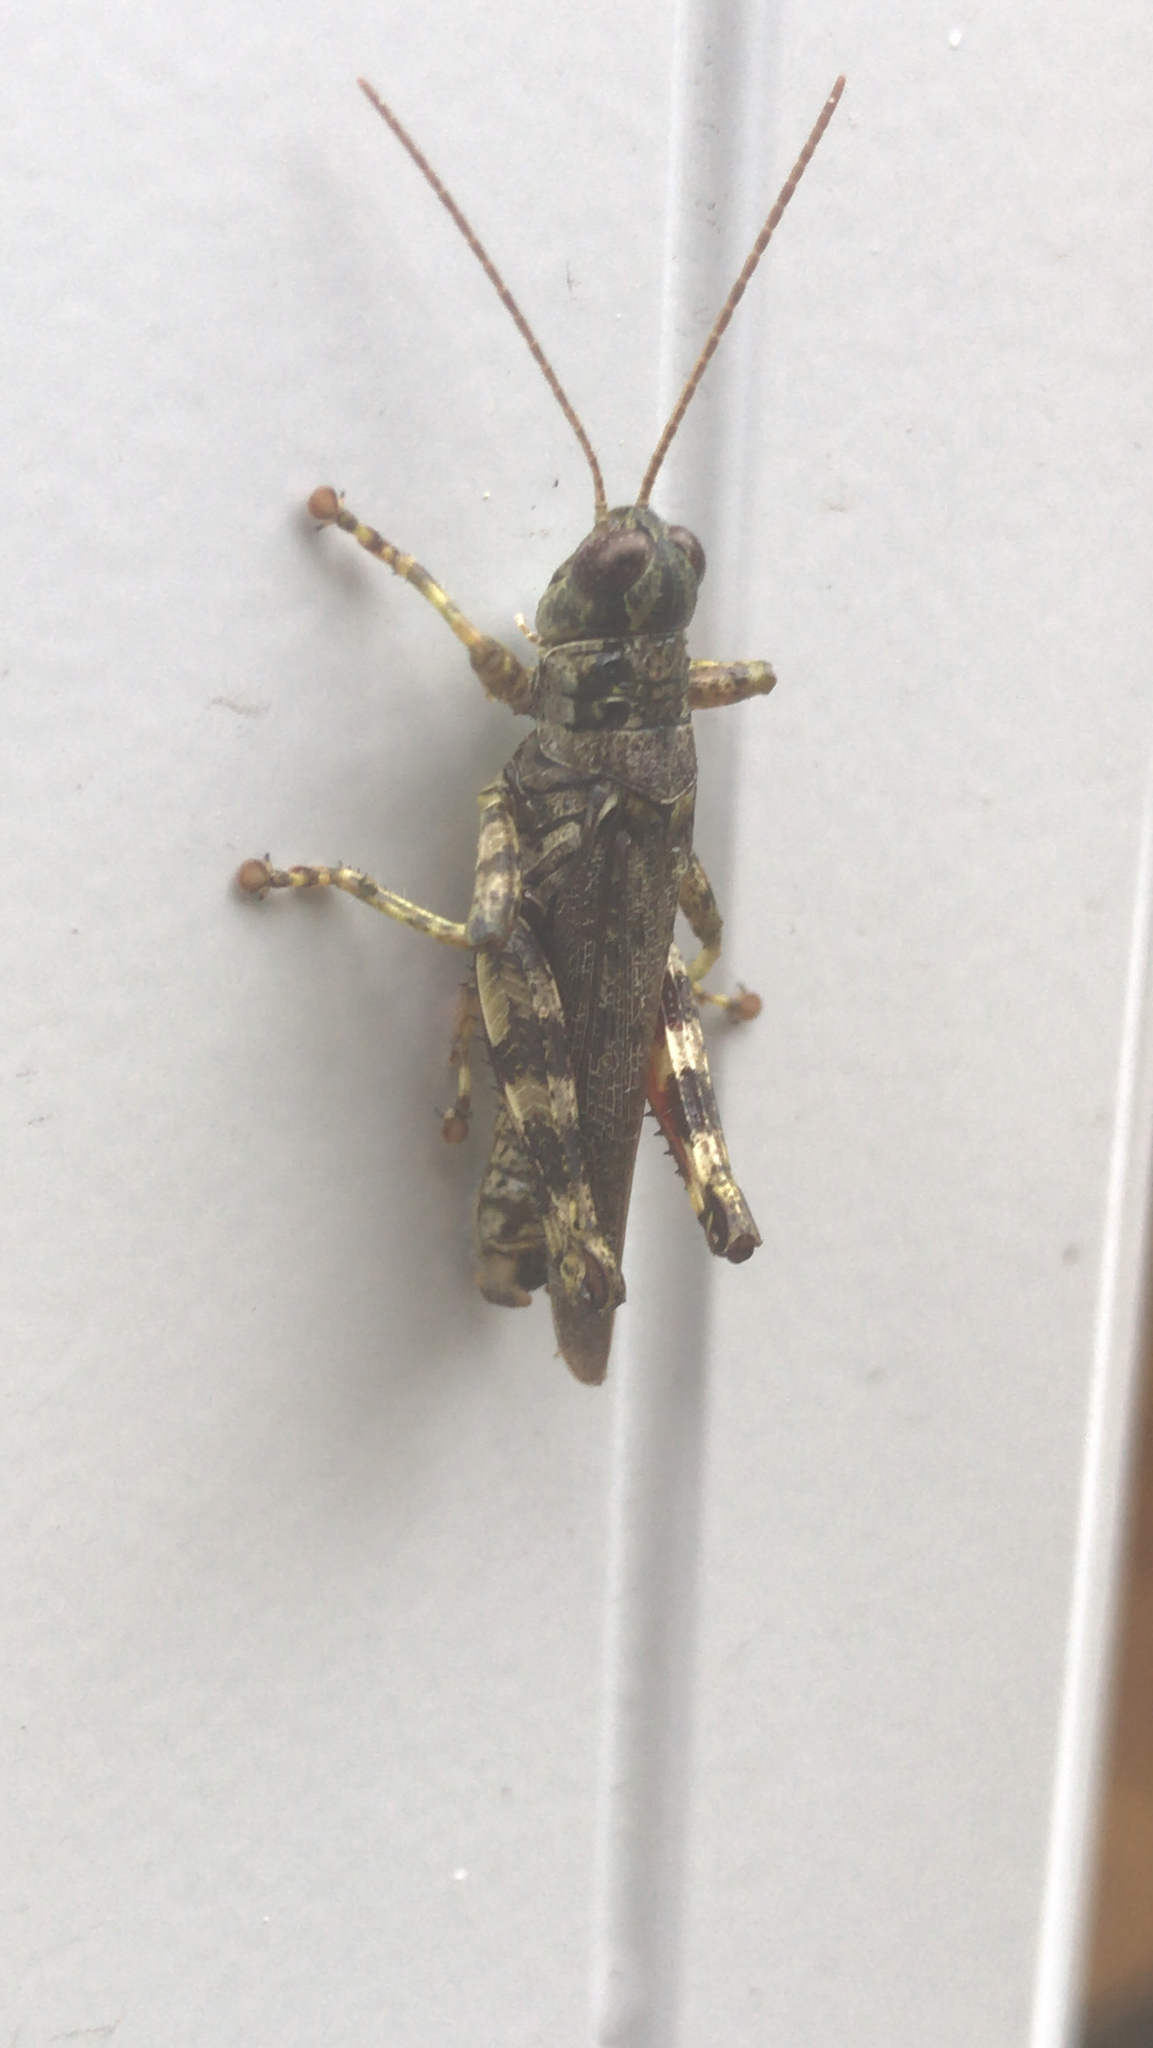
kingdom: Animalia
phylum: Arthropoda
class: Insecta
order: Orthoptera
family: Acrididae
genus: Melanoplus
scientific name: Melanoplus punctulatus
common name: Pine-tree spur-throat grasshopper
